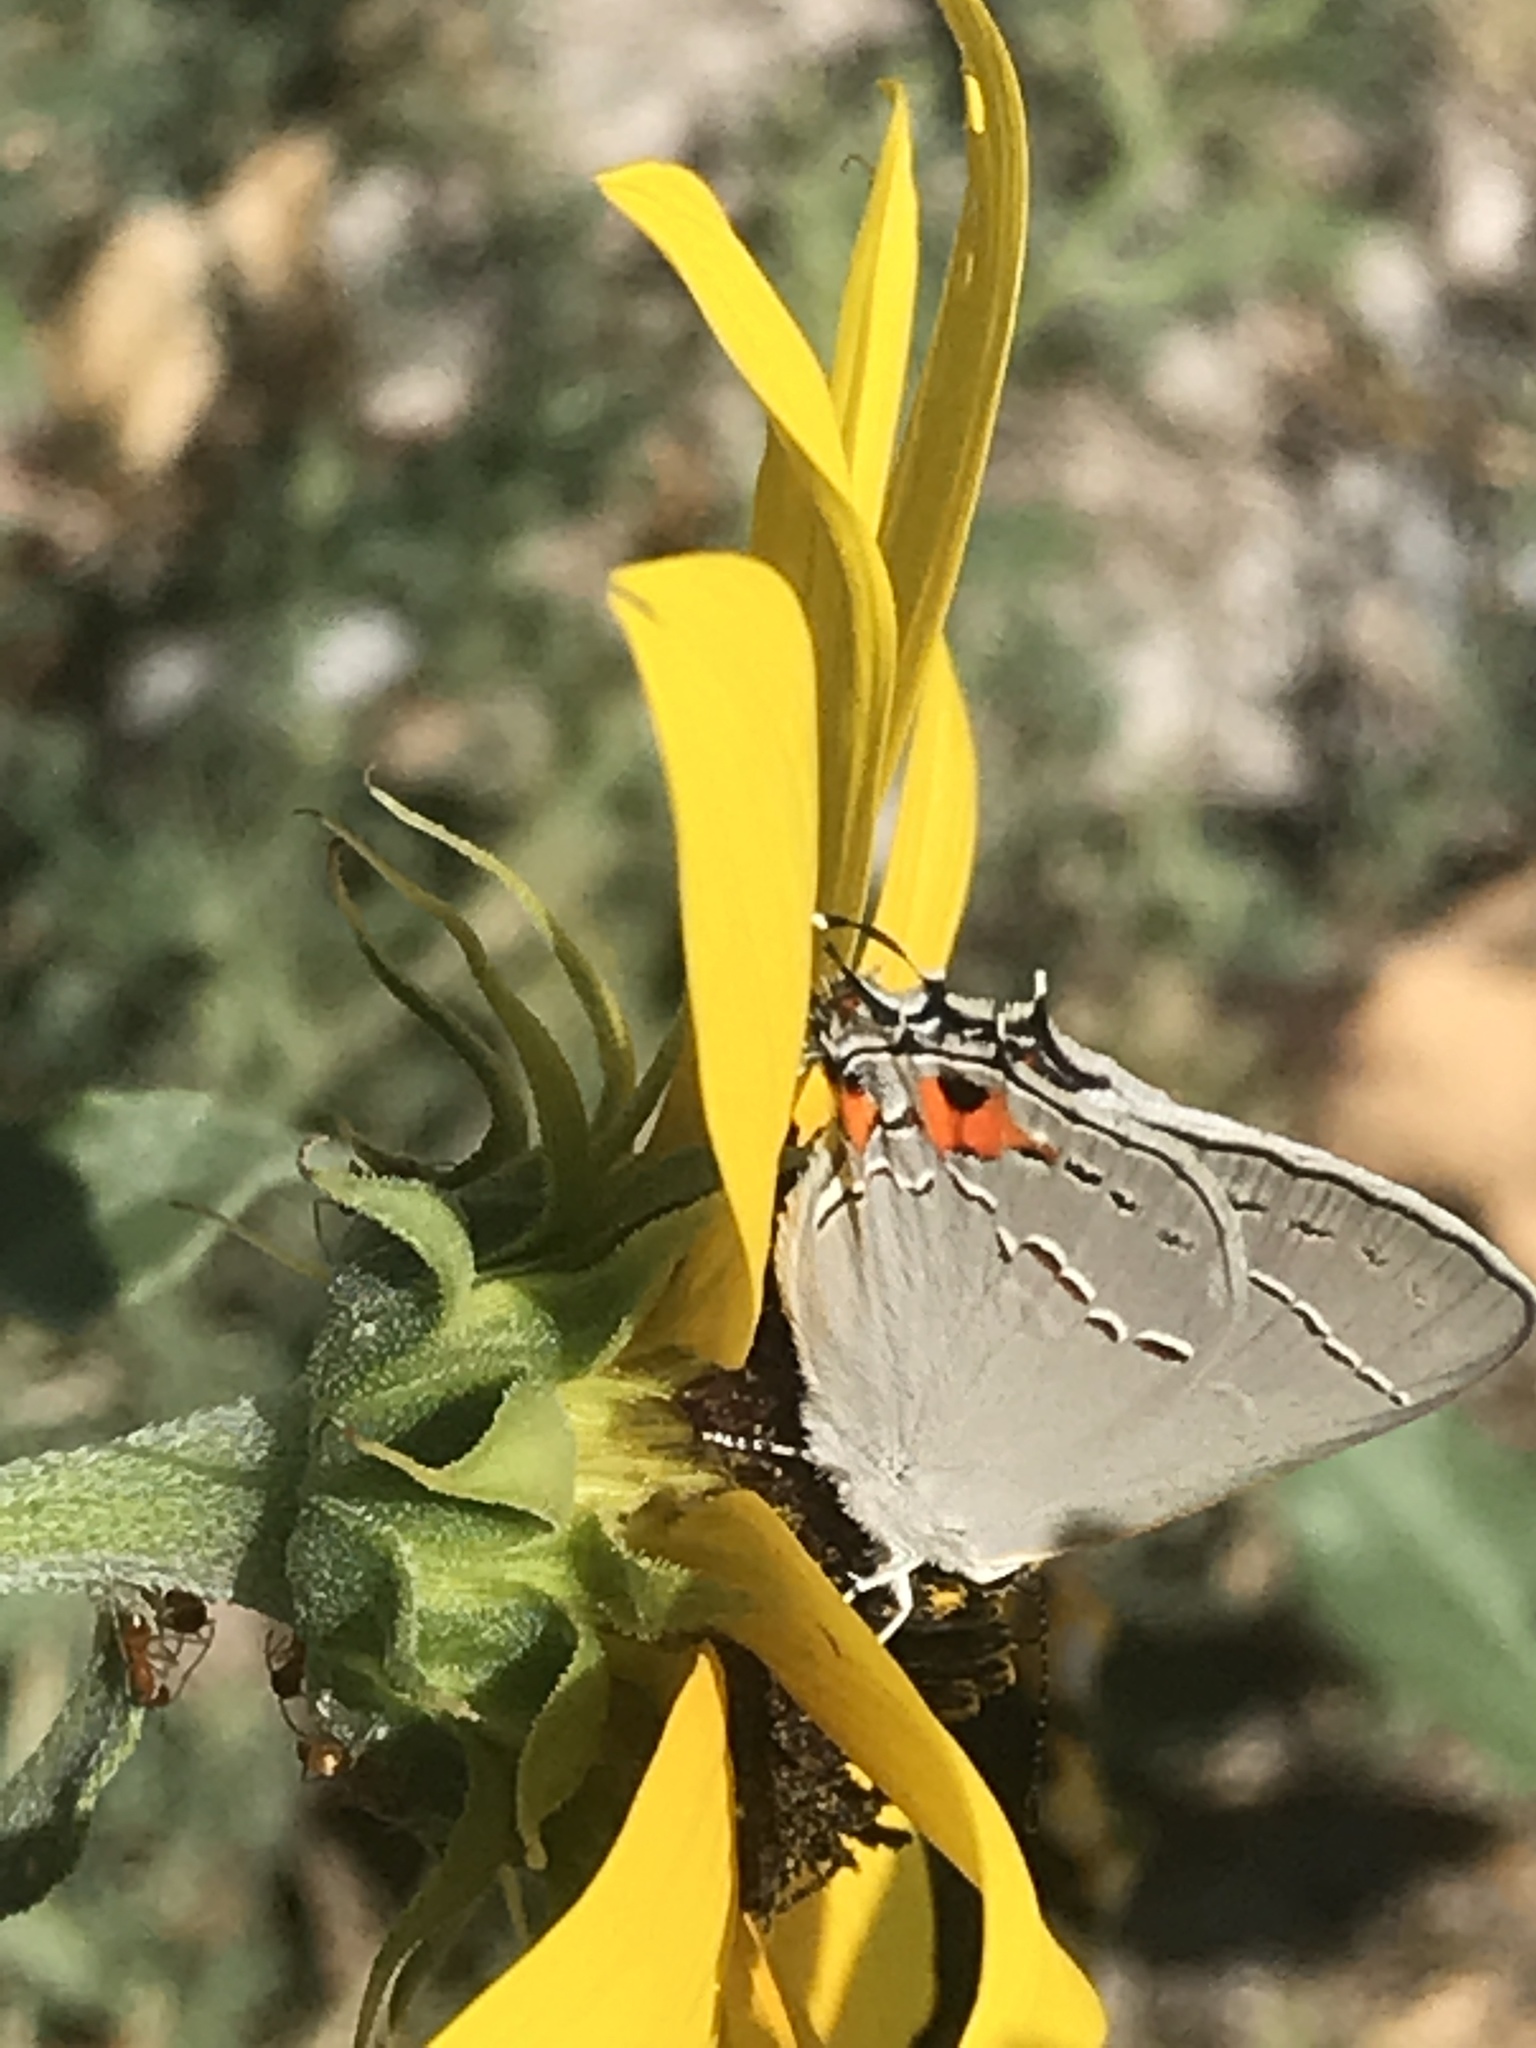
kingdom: Animalia
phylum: Arthropoda
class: Insecta
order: Lepidoptera
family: Lycaenidae
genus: Strymon
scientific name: Strymon melinus
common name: Gray hairstreak
